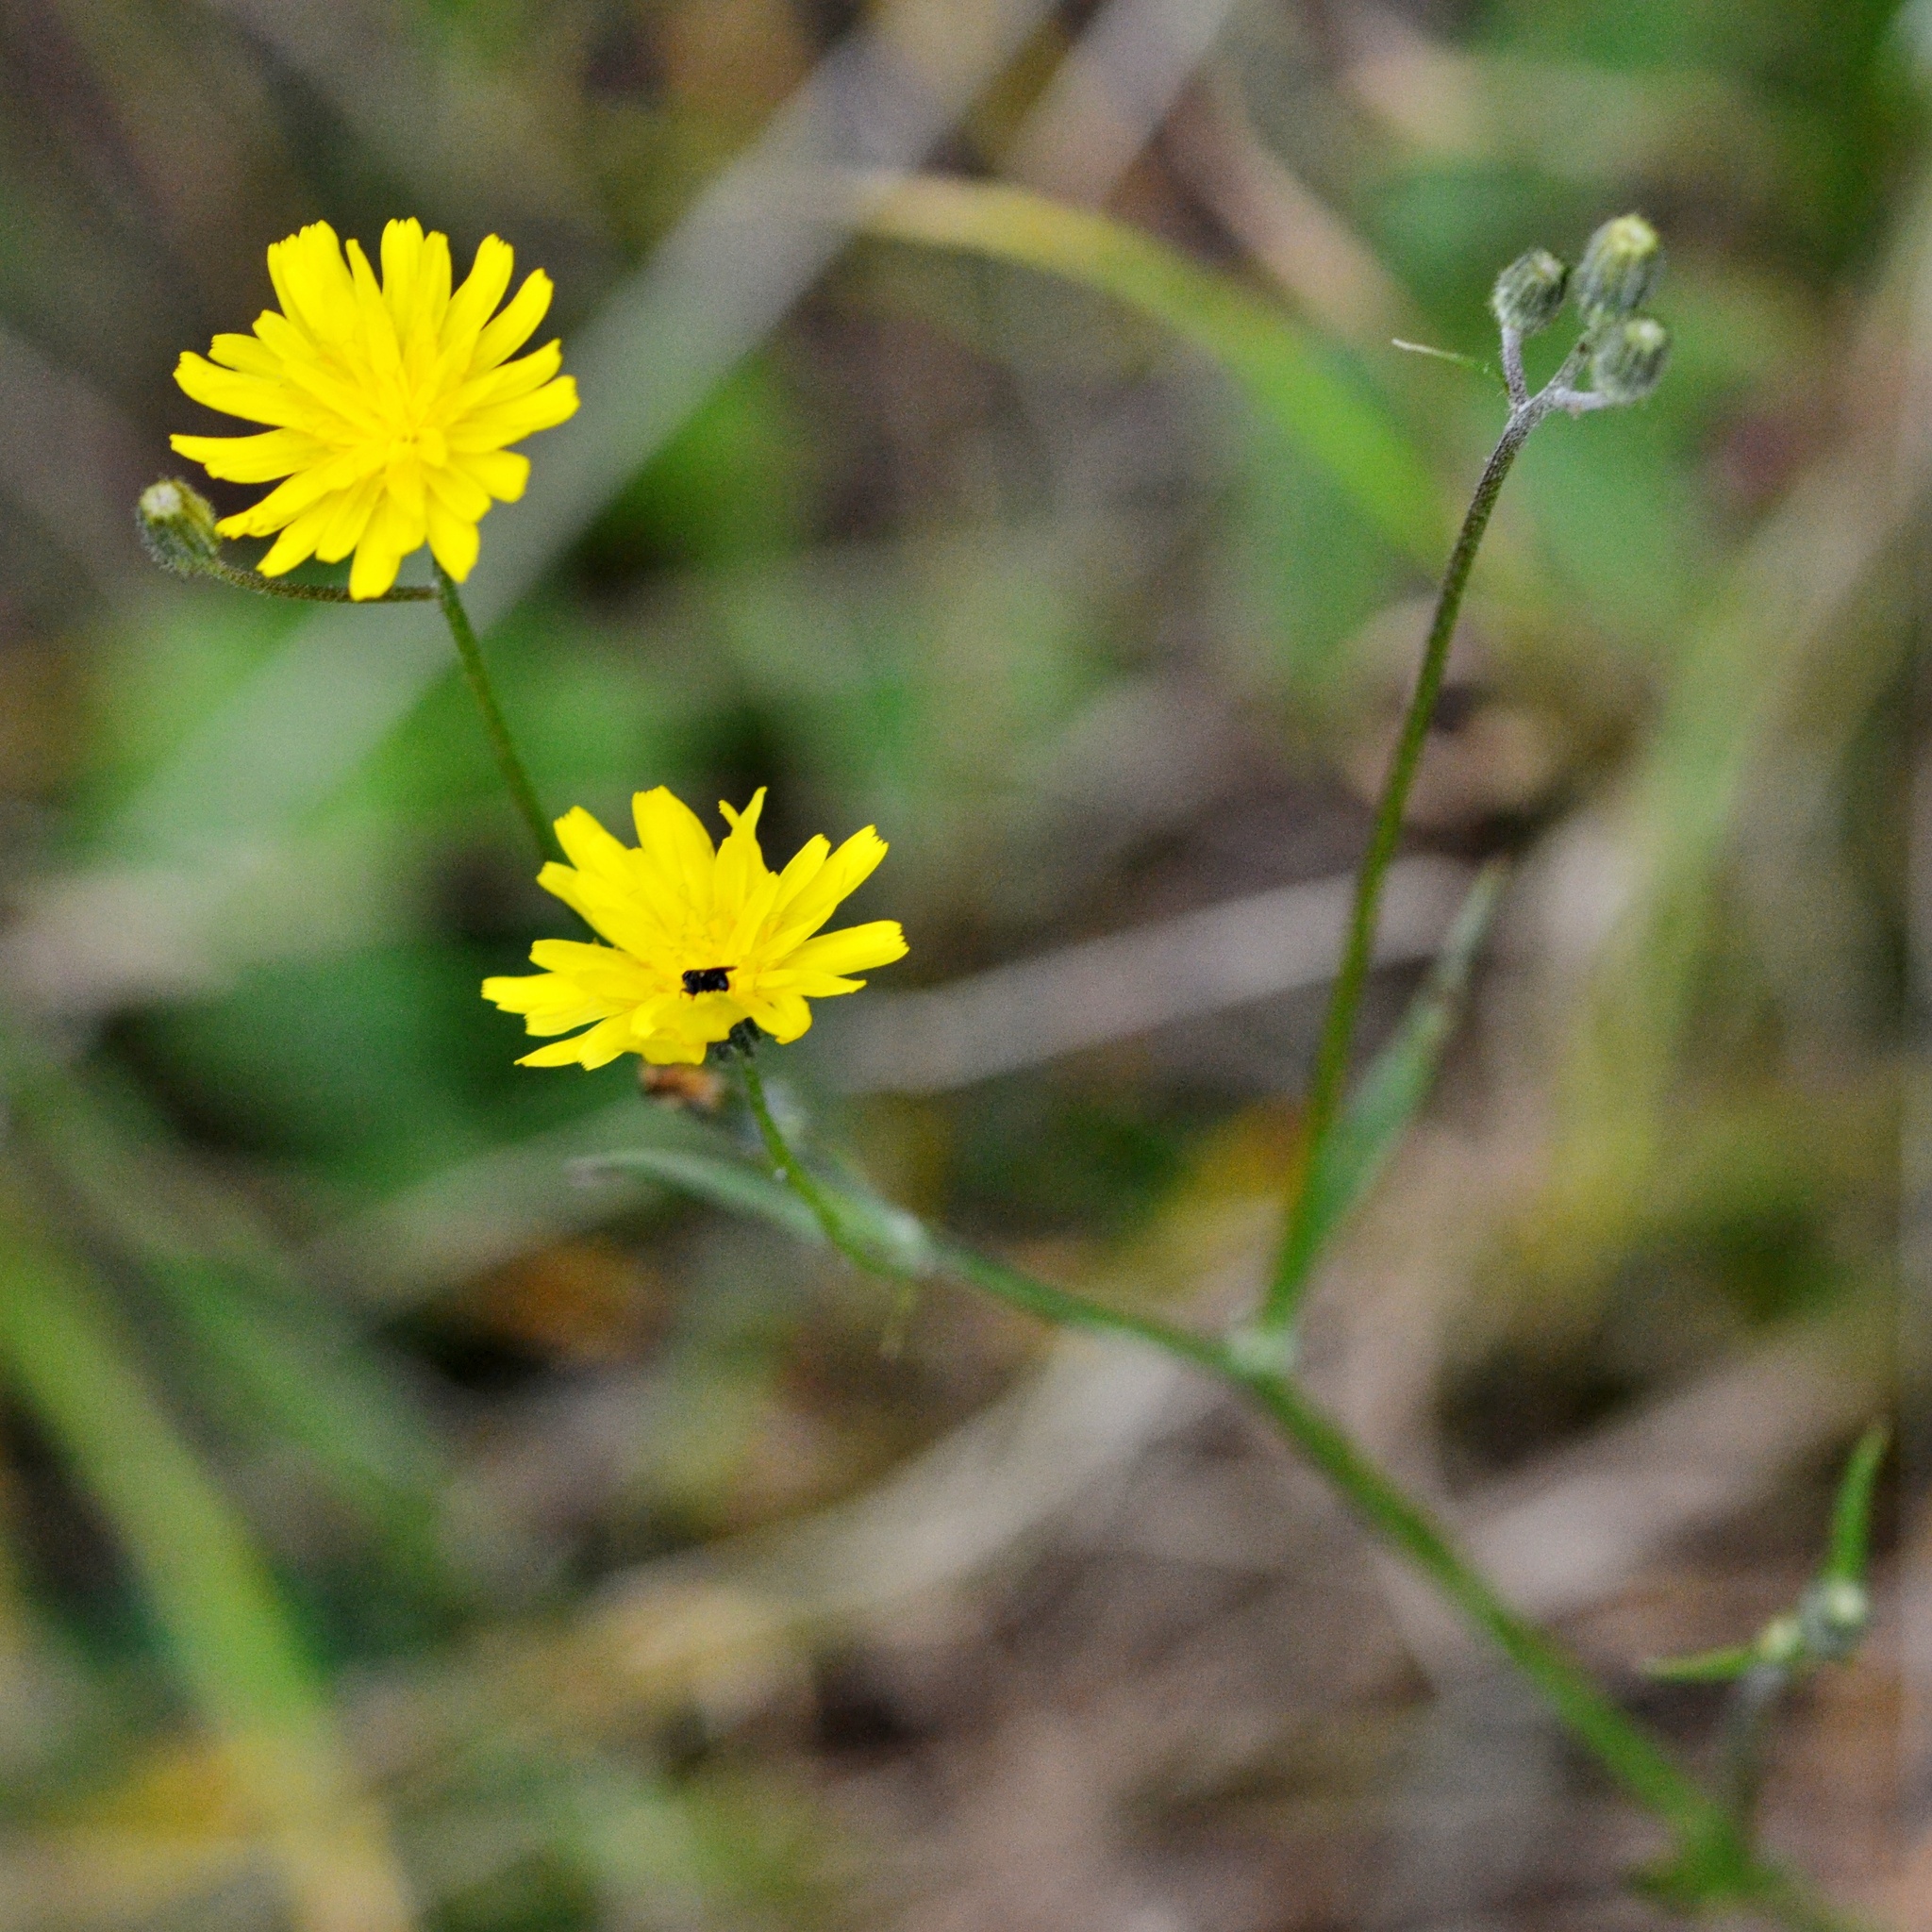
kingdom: Plantae
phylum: Tracheophyta
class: Magnoliopsida
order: Asterales
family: Asteraceae
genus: Crepis
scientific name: Crepis capillaris
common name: Smooth hawksbeard
